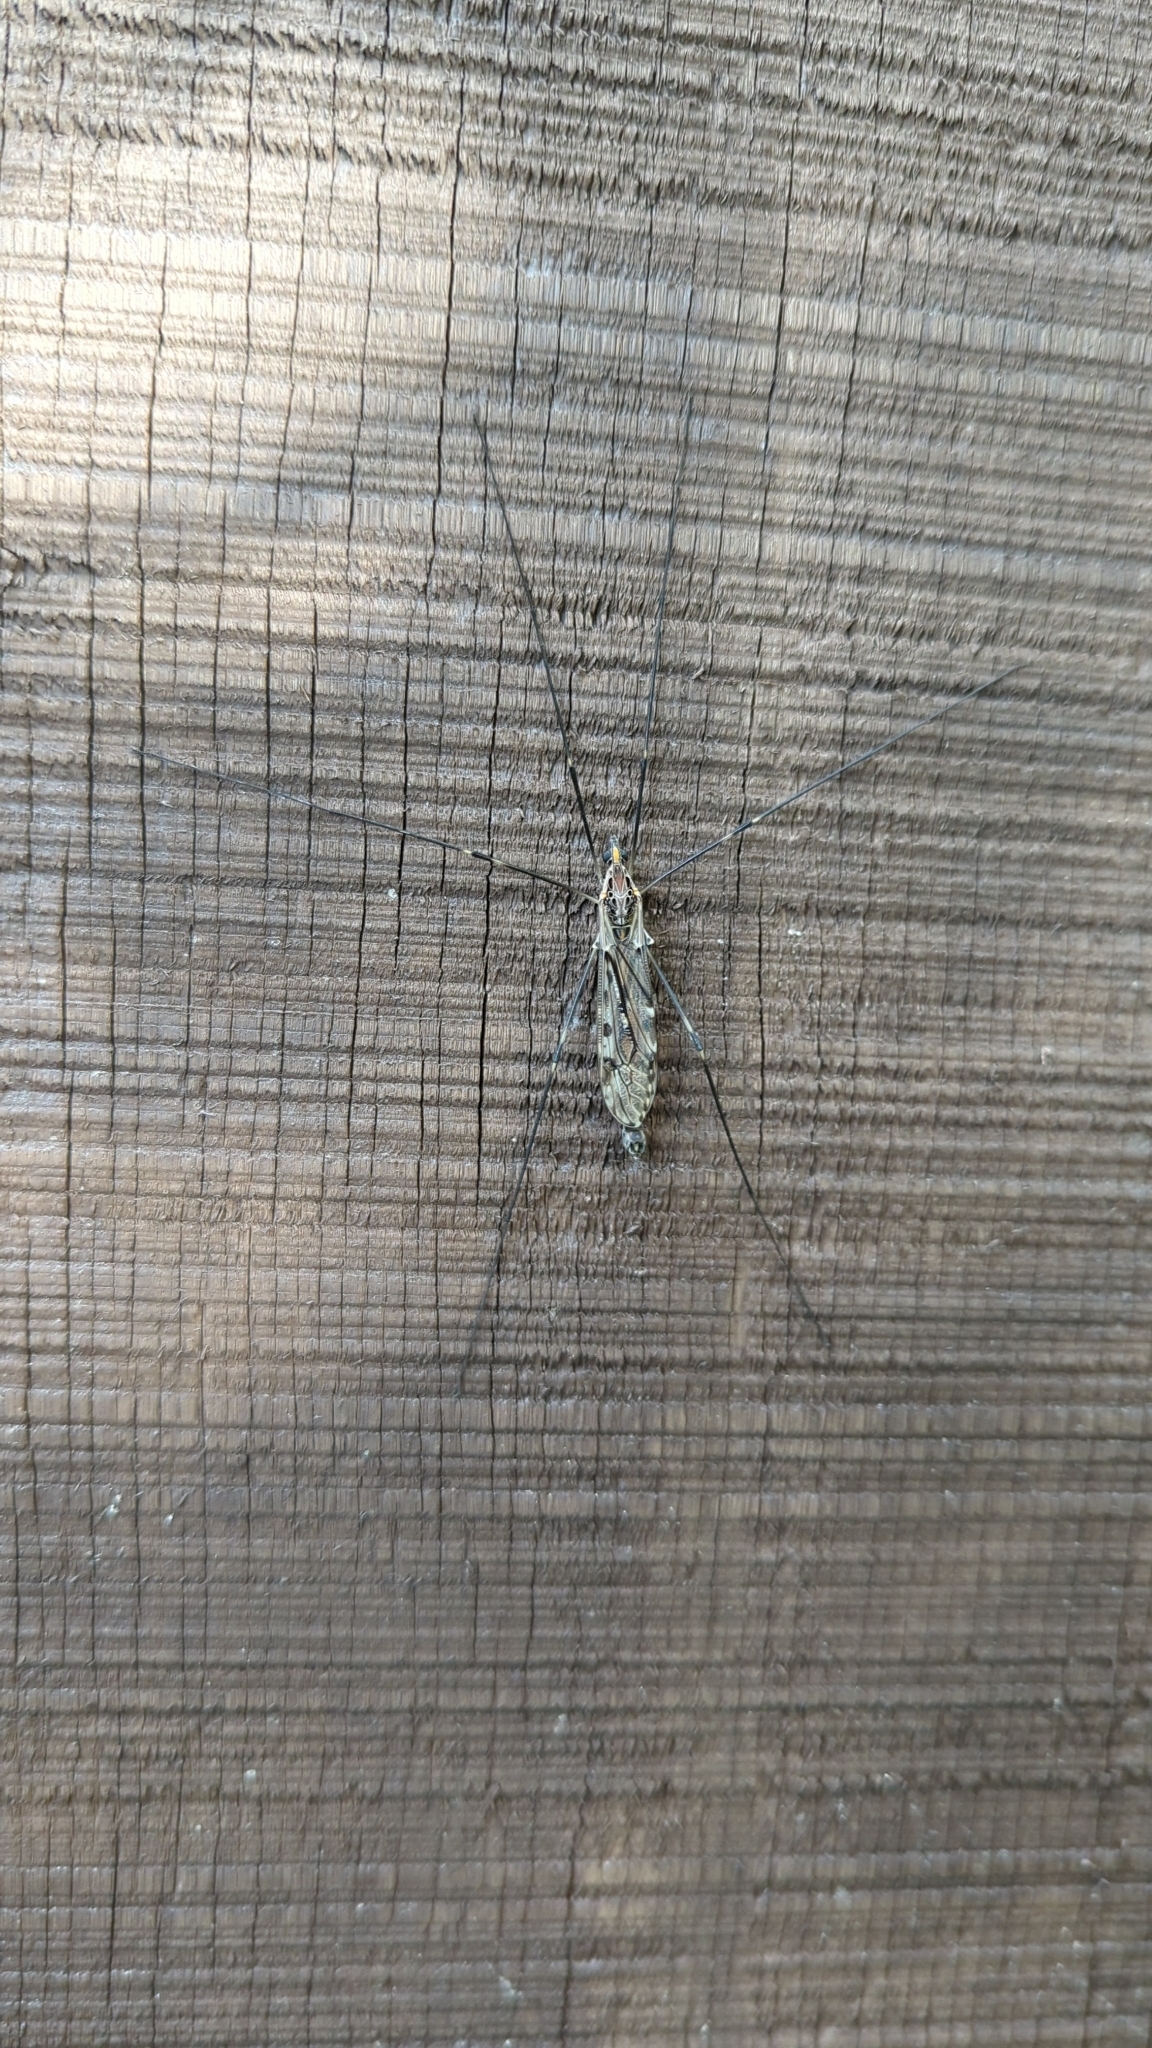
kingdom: Animalia
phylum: Arthropoda
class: Insecta
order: Diptera
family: Tipulidae
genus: Tipula
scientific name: Tipula abdominalis
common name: Giant crane fly
